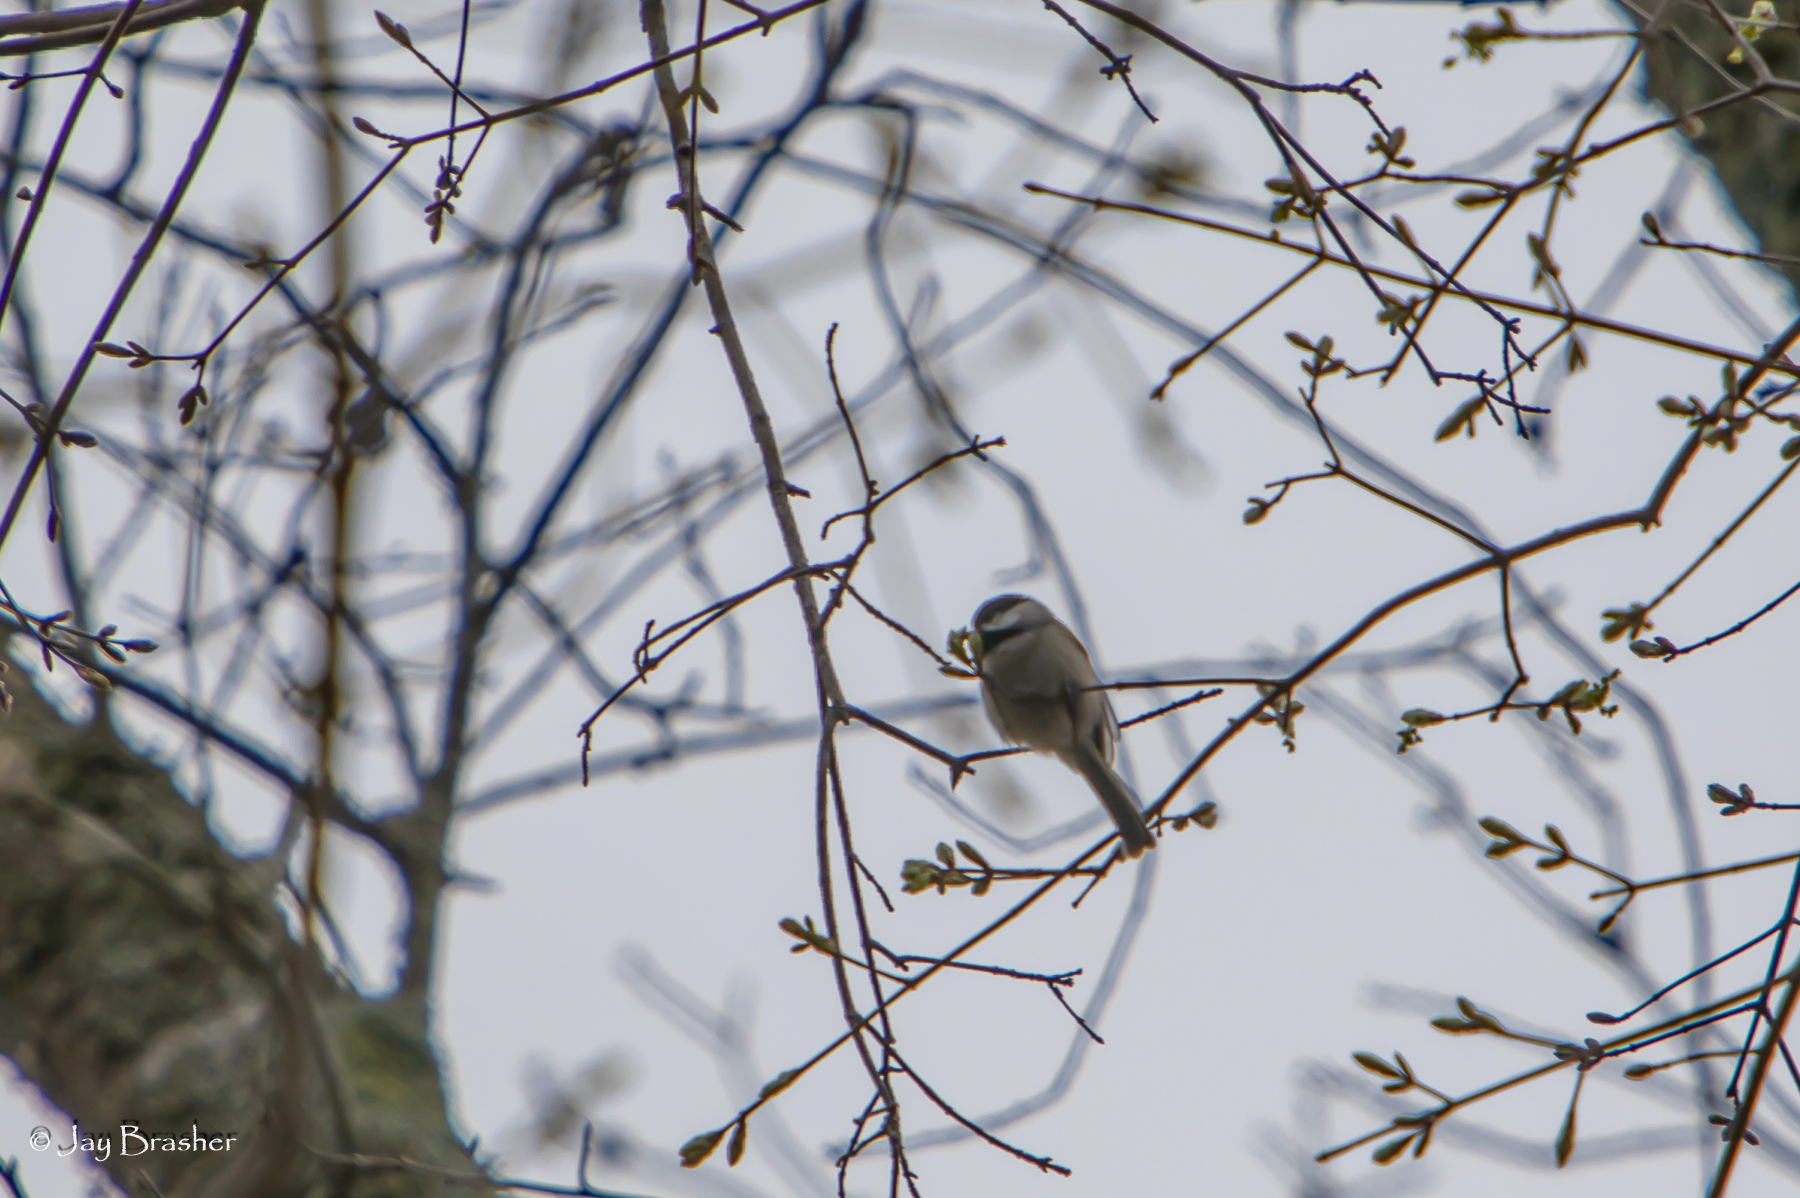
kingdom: Animalia
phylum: Chordata
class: Aves
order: Passeriformes
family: Paridae
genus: Poecile
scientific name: Poecile carolinensis
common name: Carolina chickadee
